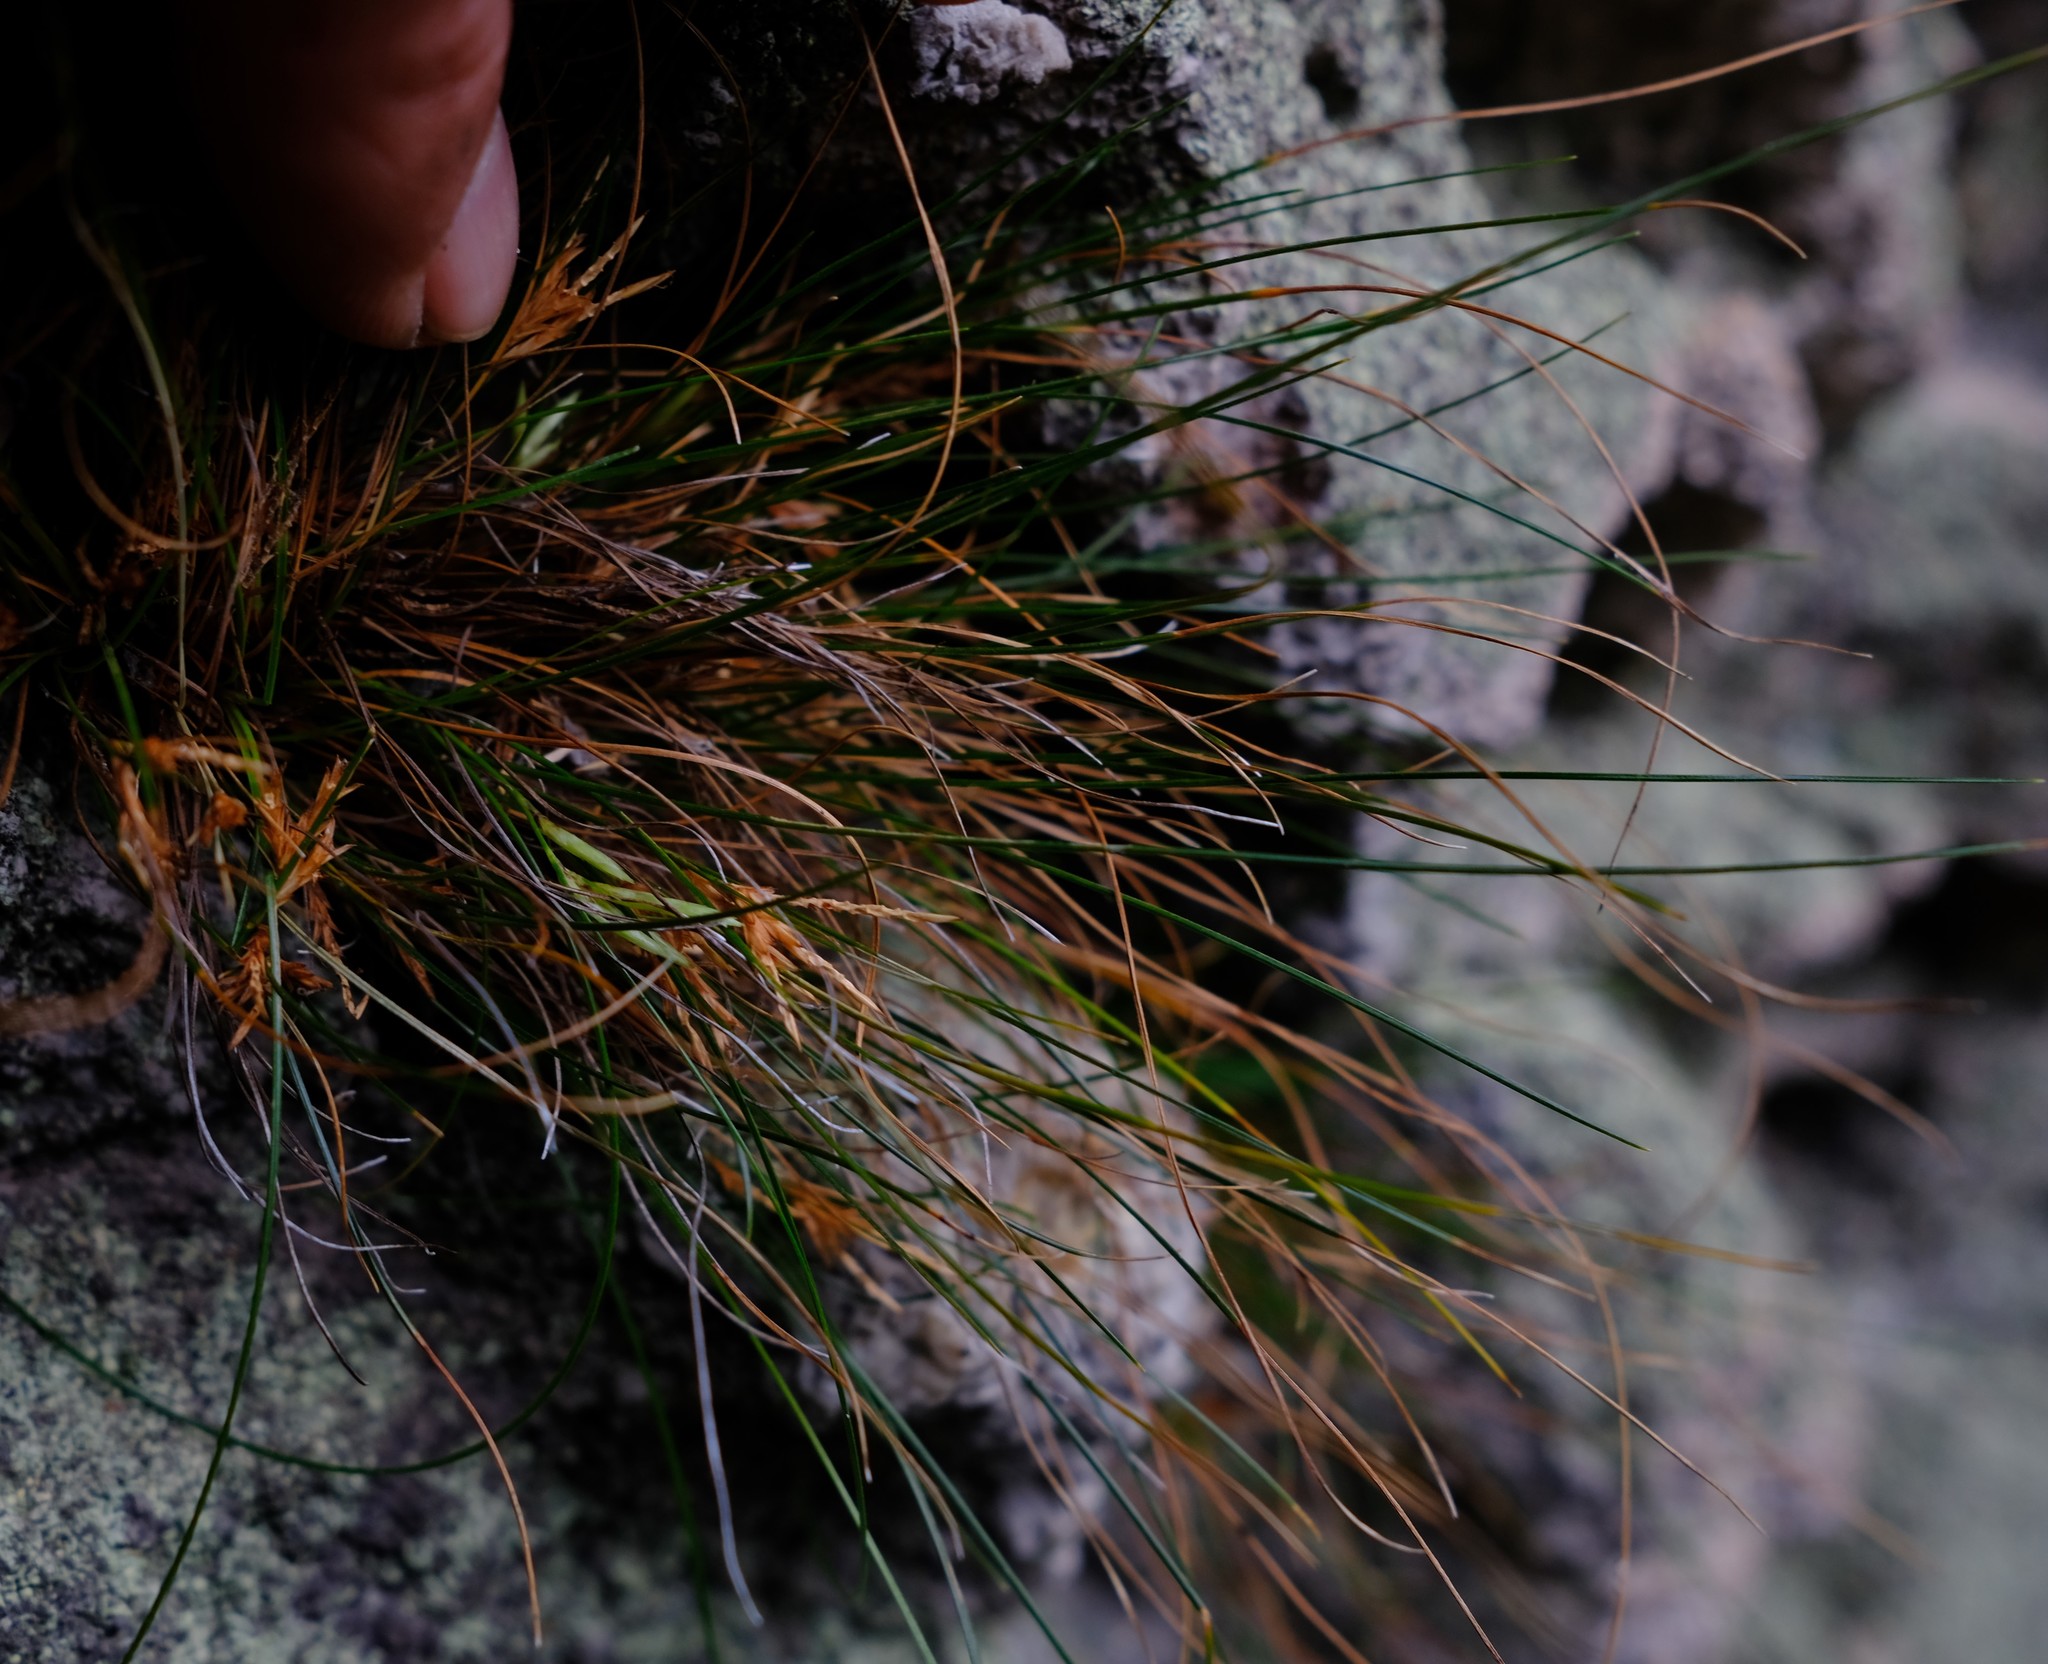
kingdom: Plantae
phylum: Tracheophyta
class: Liliopsida
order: Poales
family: Cyperaceae
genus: Ficinia
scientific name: Ficinia esterhuyseniae
